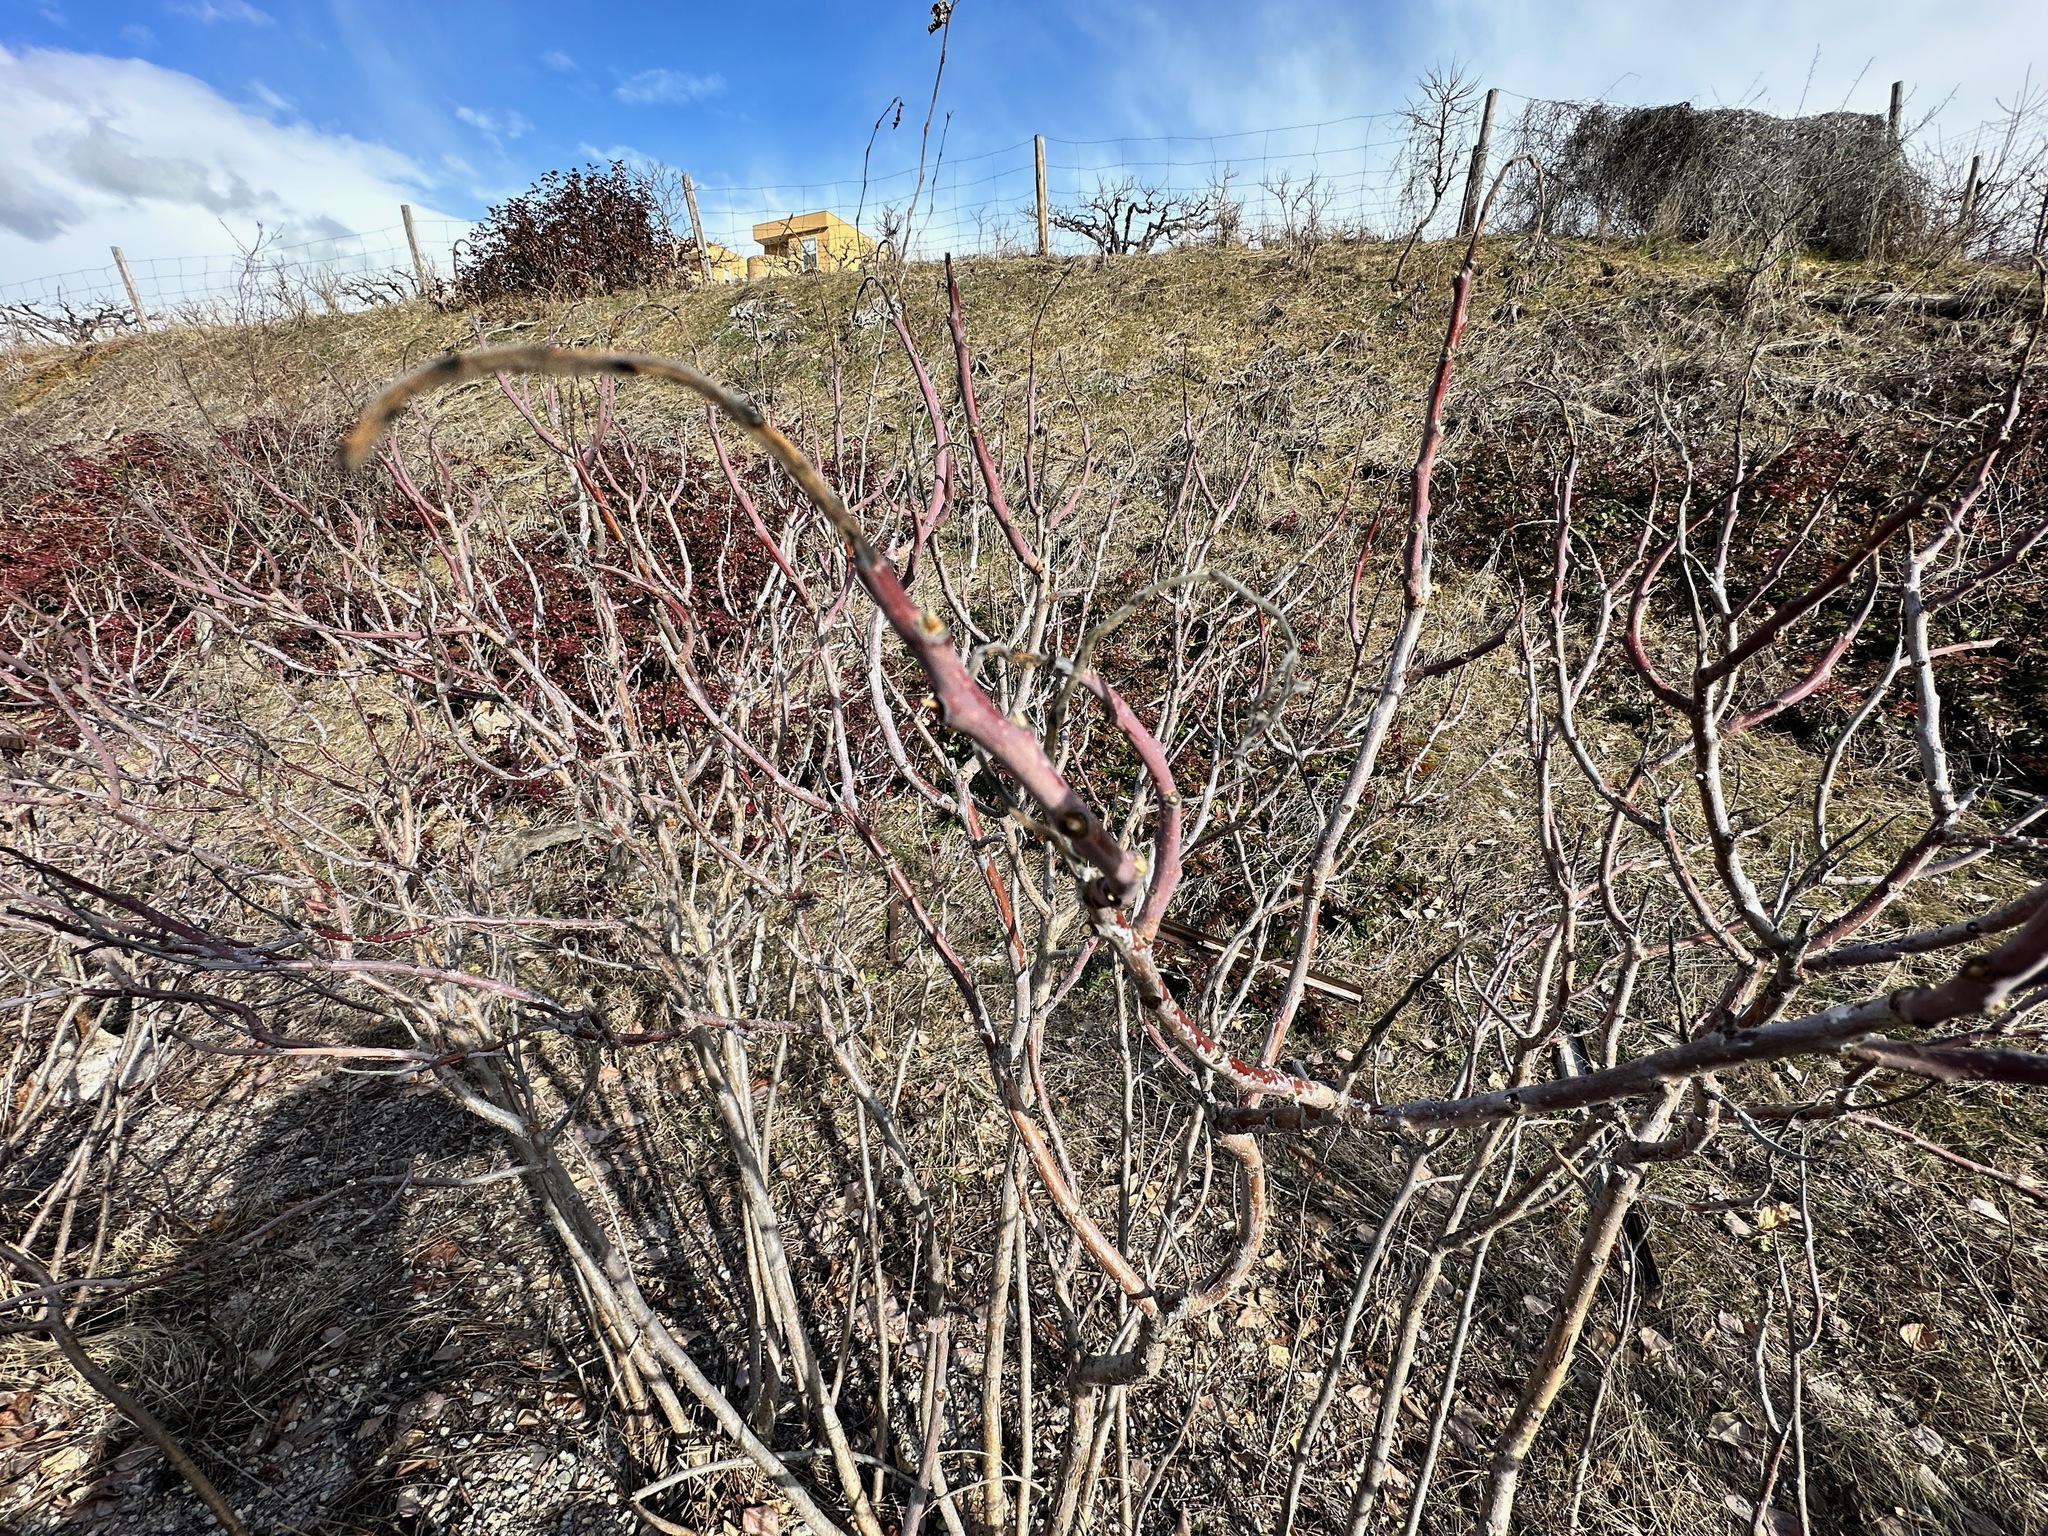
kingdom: Plantae
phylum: Tracheophyta
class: Magnoliopsida
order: Sapindales
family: Anacardiaceae
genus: Rhus
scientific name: Rhus glabra
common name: Scarlet sumac
